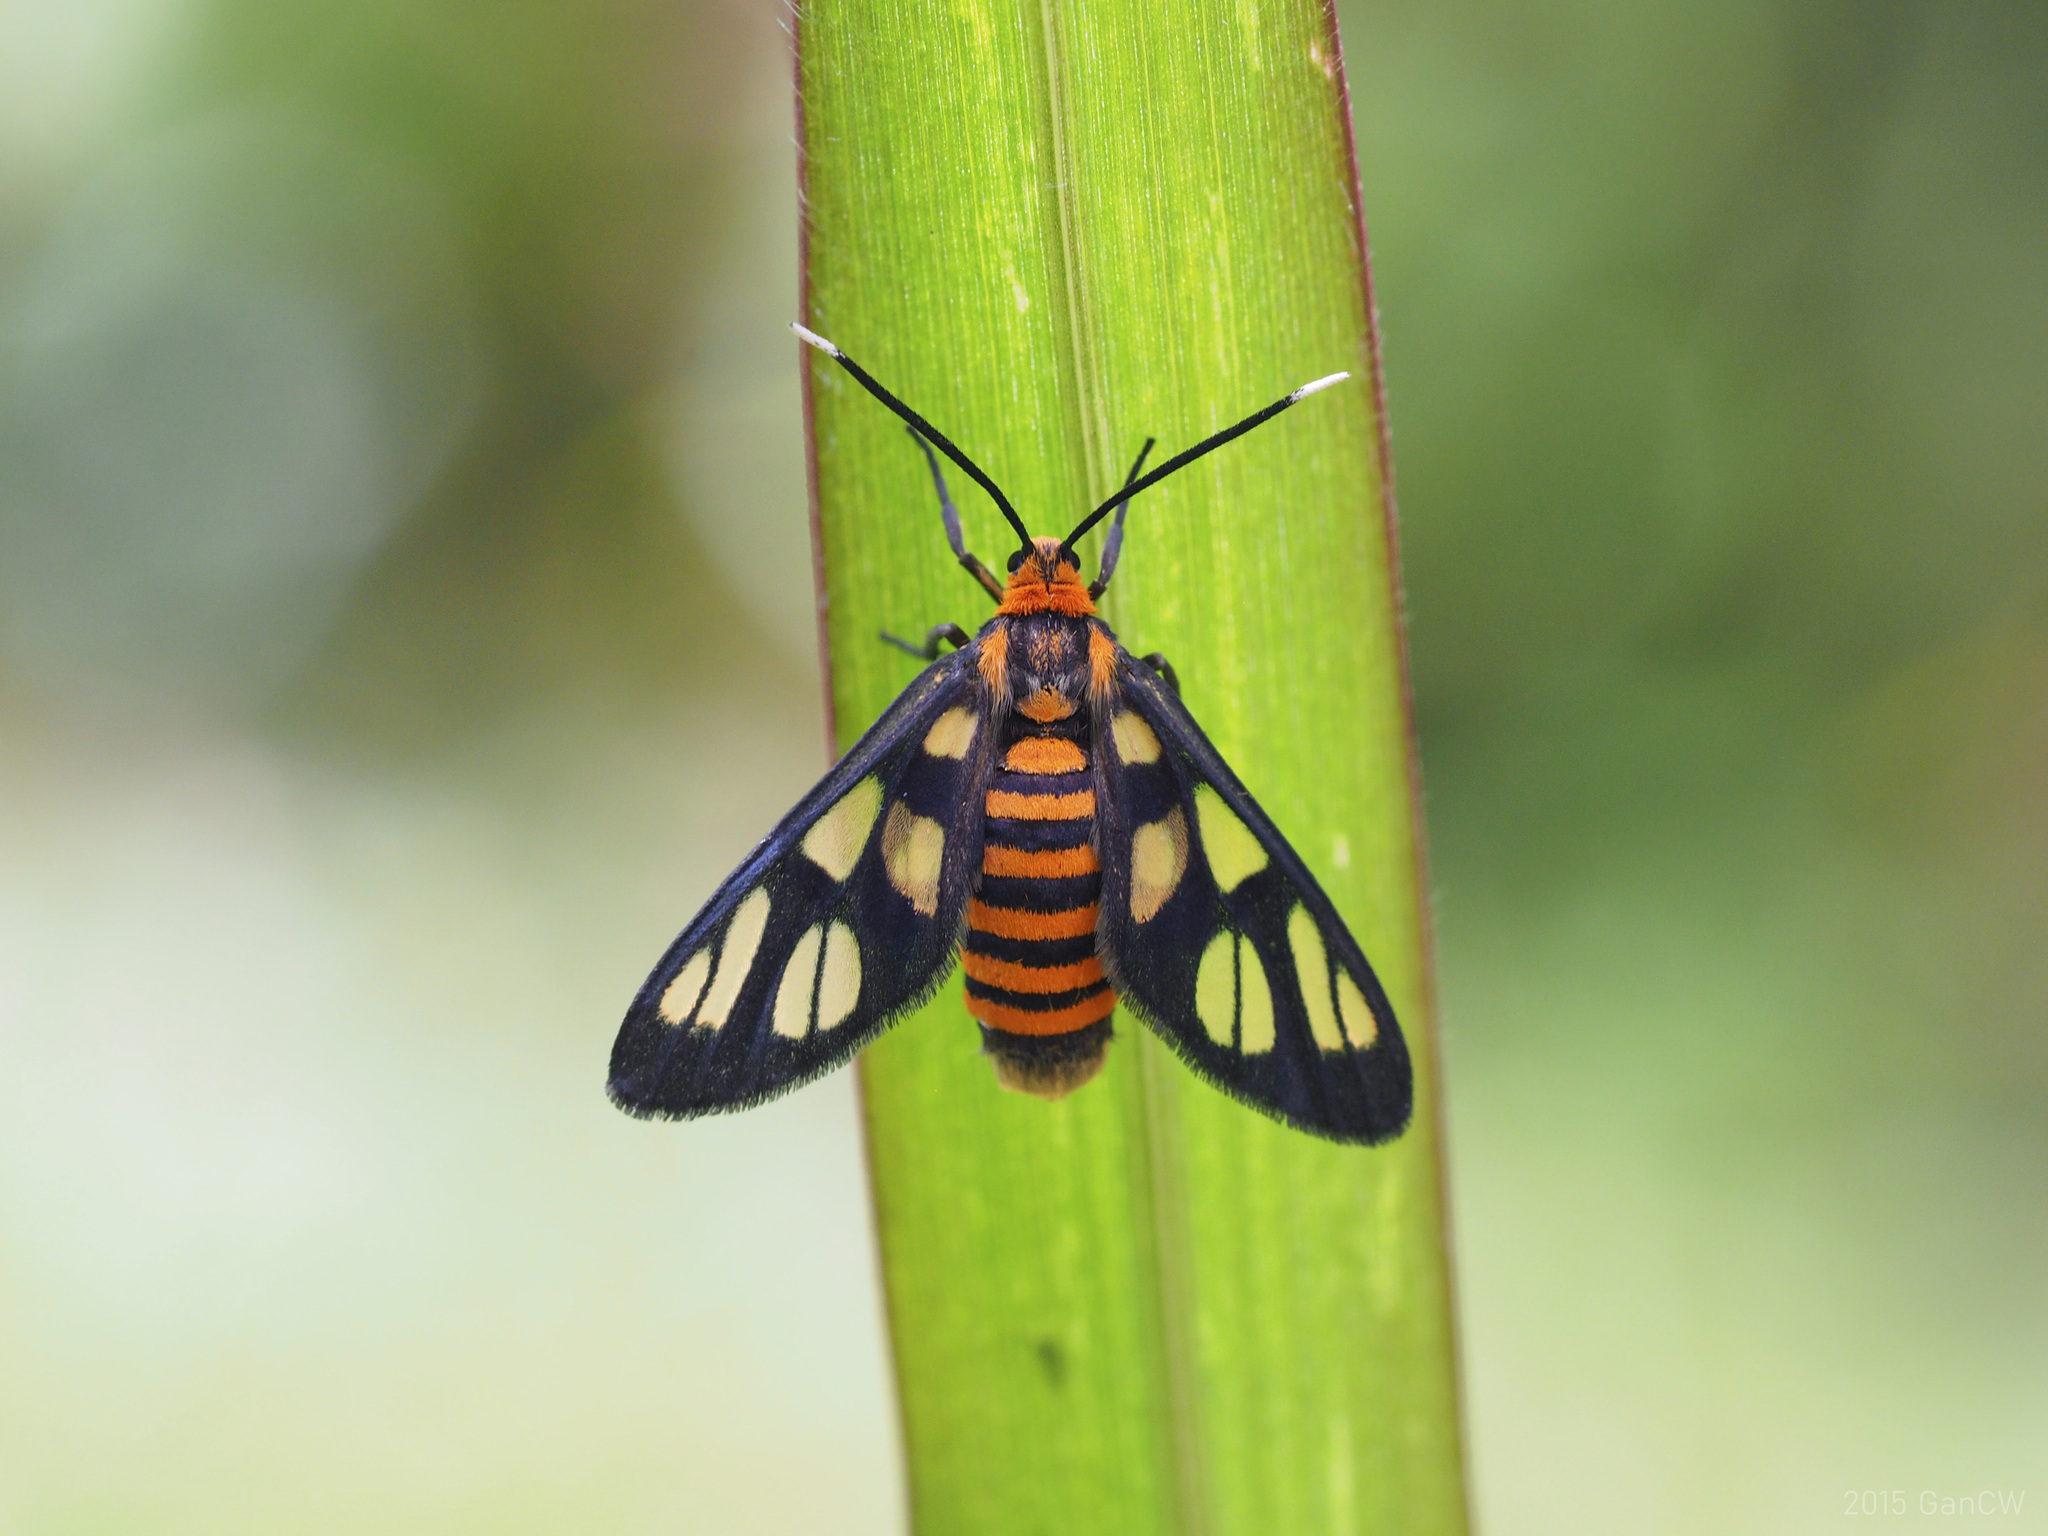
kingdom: Animalia
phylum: Arthropoda
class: Insecta
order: Lepidoptera
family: Erebidae
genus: Amata
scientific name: Amata huebneri
